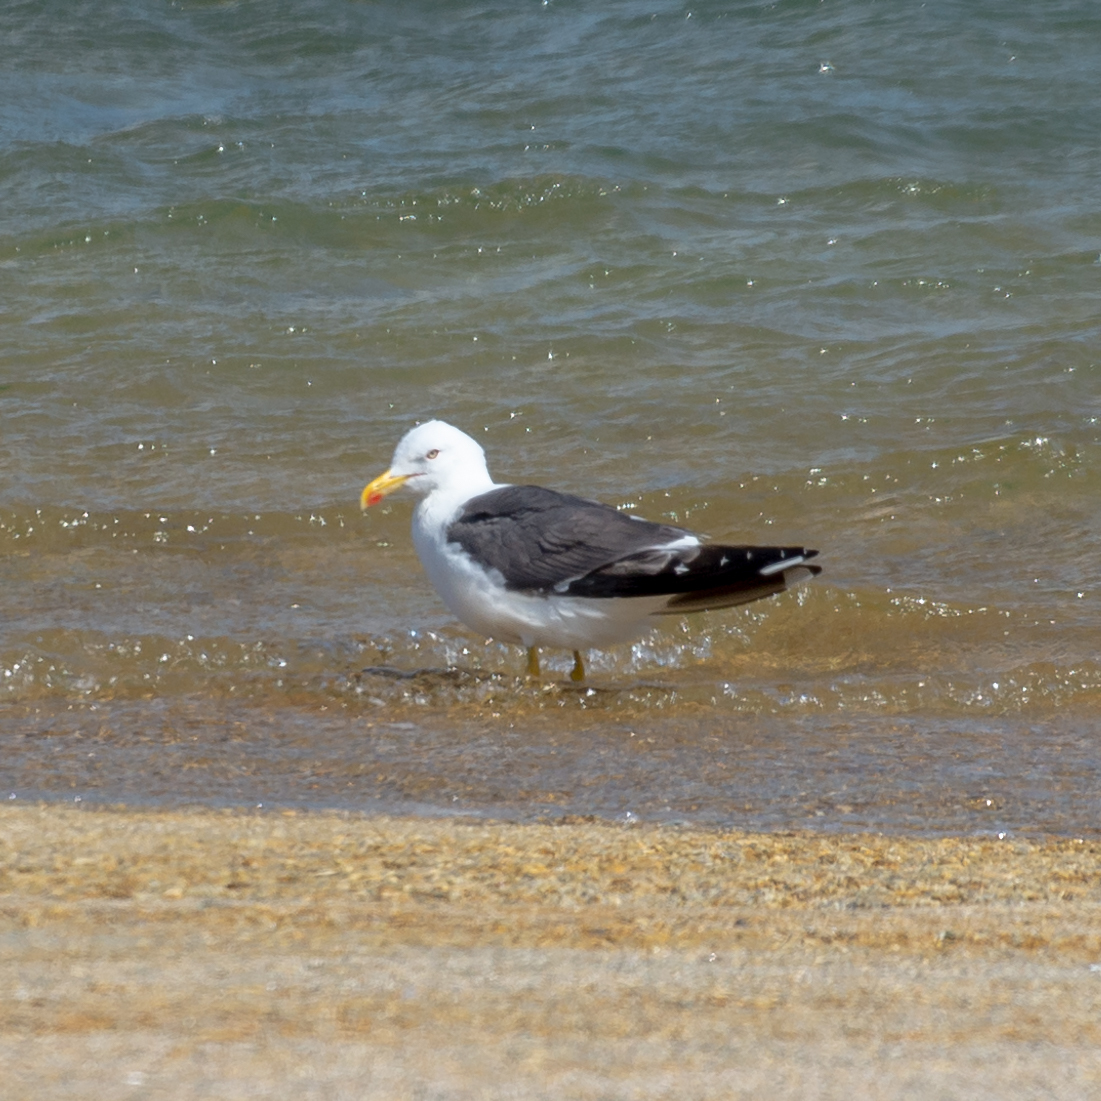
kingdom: Animalia
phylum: Chordata
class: Aves
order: Charadriiformes
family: Laridae
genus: Larus
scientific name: Larus fuscus
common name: Lesser black-backed gull
